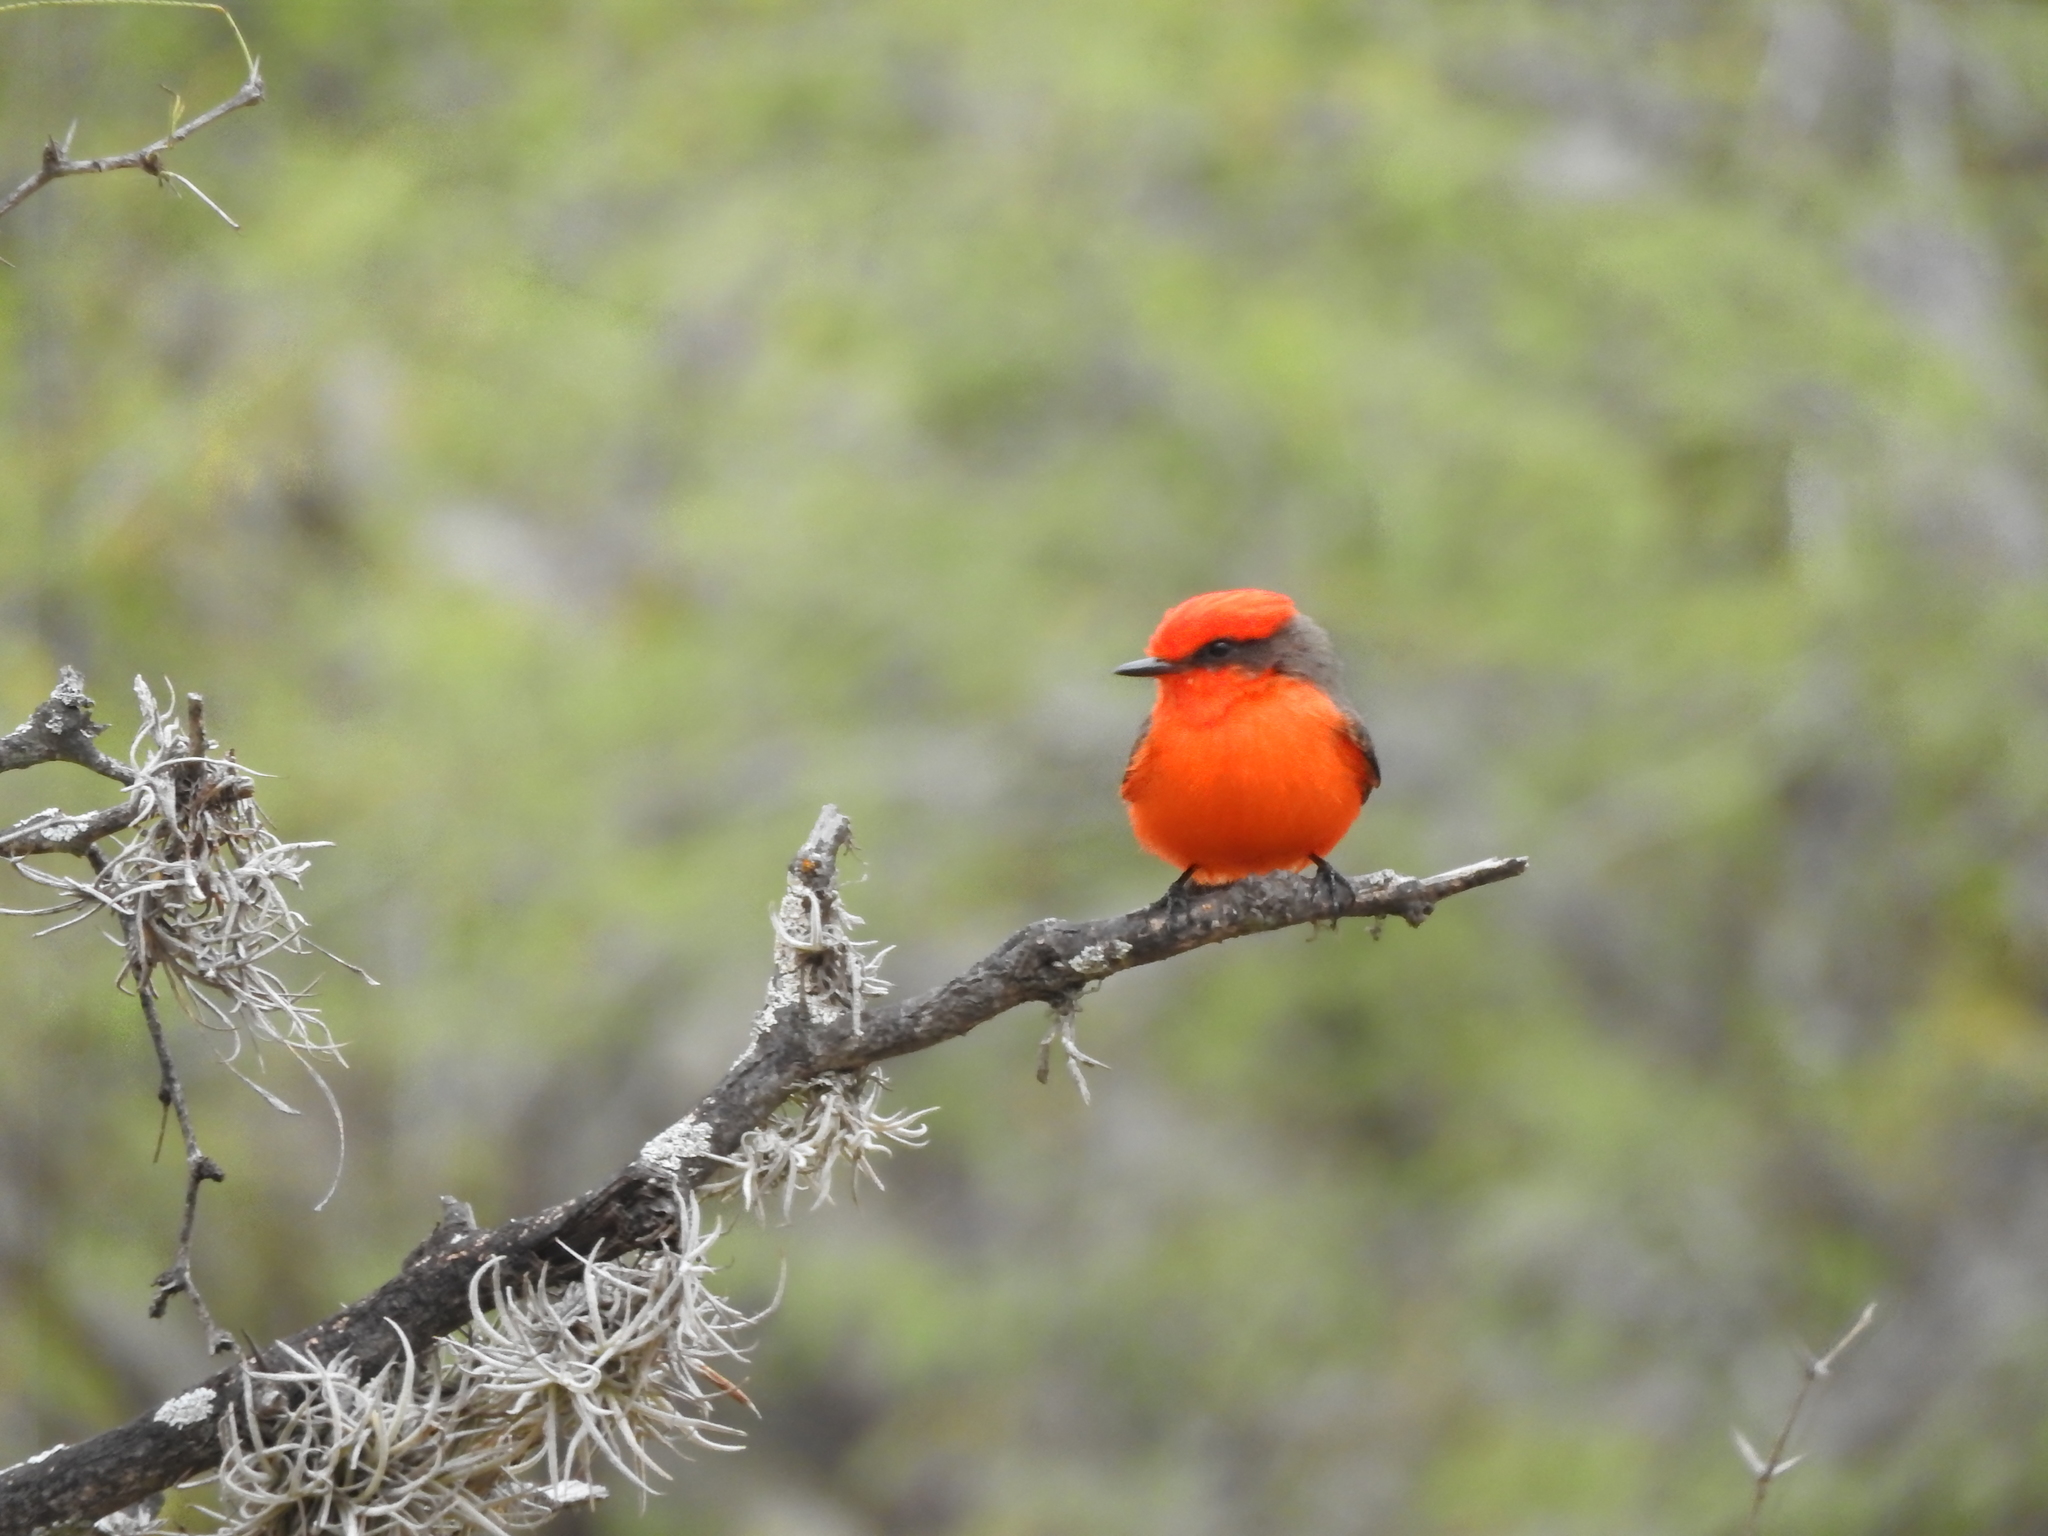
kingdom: Animalia
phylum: Chordata
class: Aves
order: Passeriformes
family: Tyrannidae
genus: Pyrocephalus
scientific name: Pyrocephalus rubinus
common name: Vermilion flycatcher
